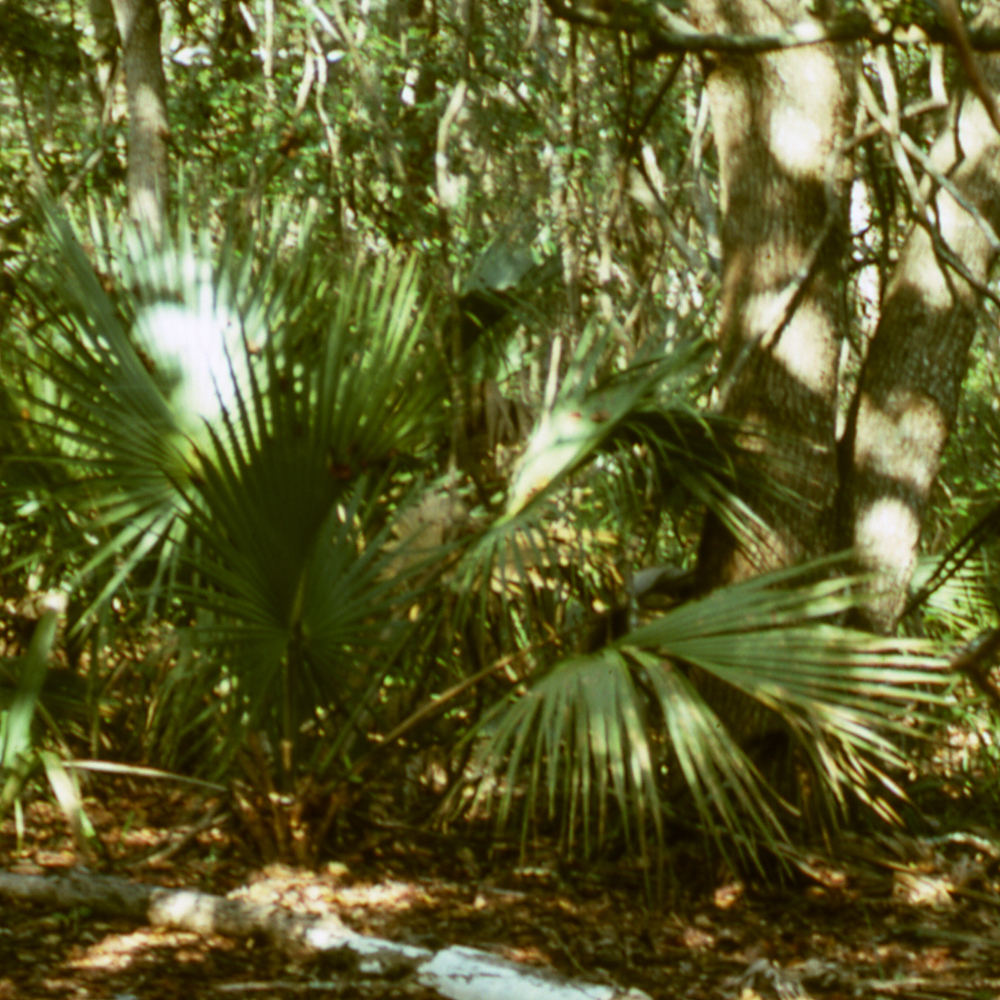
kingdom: Plantae
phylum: Tracheophyta
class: Liliopsida
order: Arecales
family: Arecaceae
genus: Sabal
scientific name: Sabal palmetto
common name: Blue palmetto
